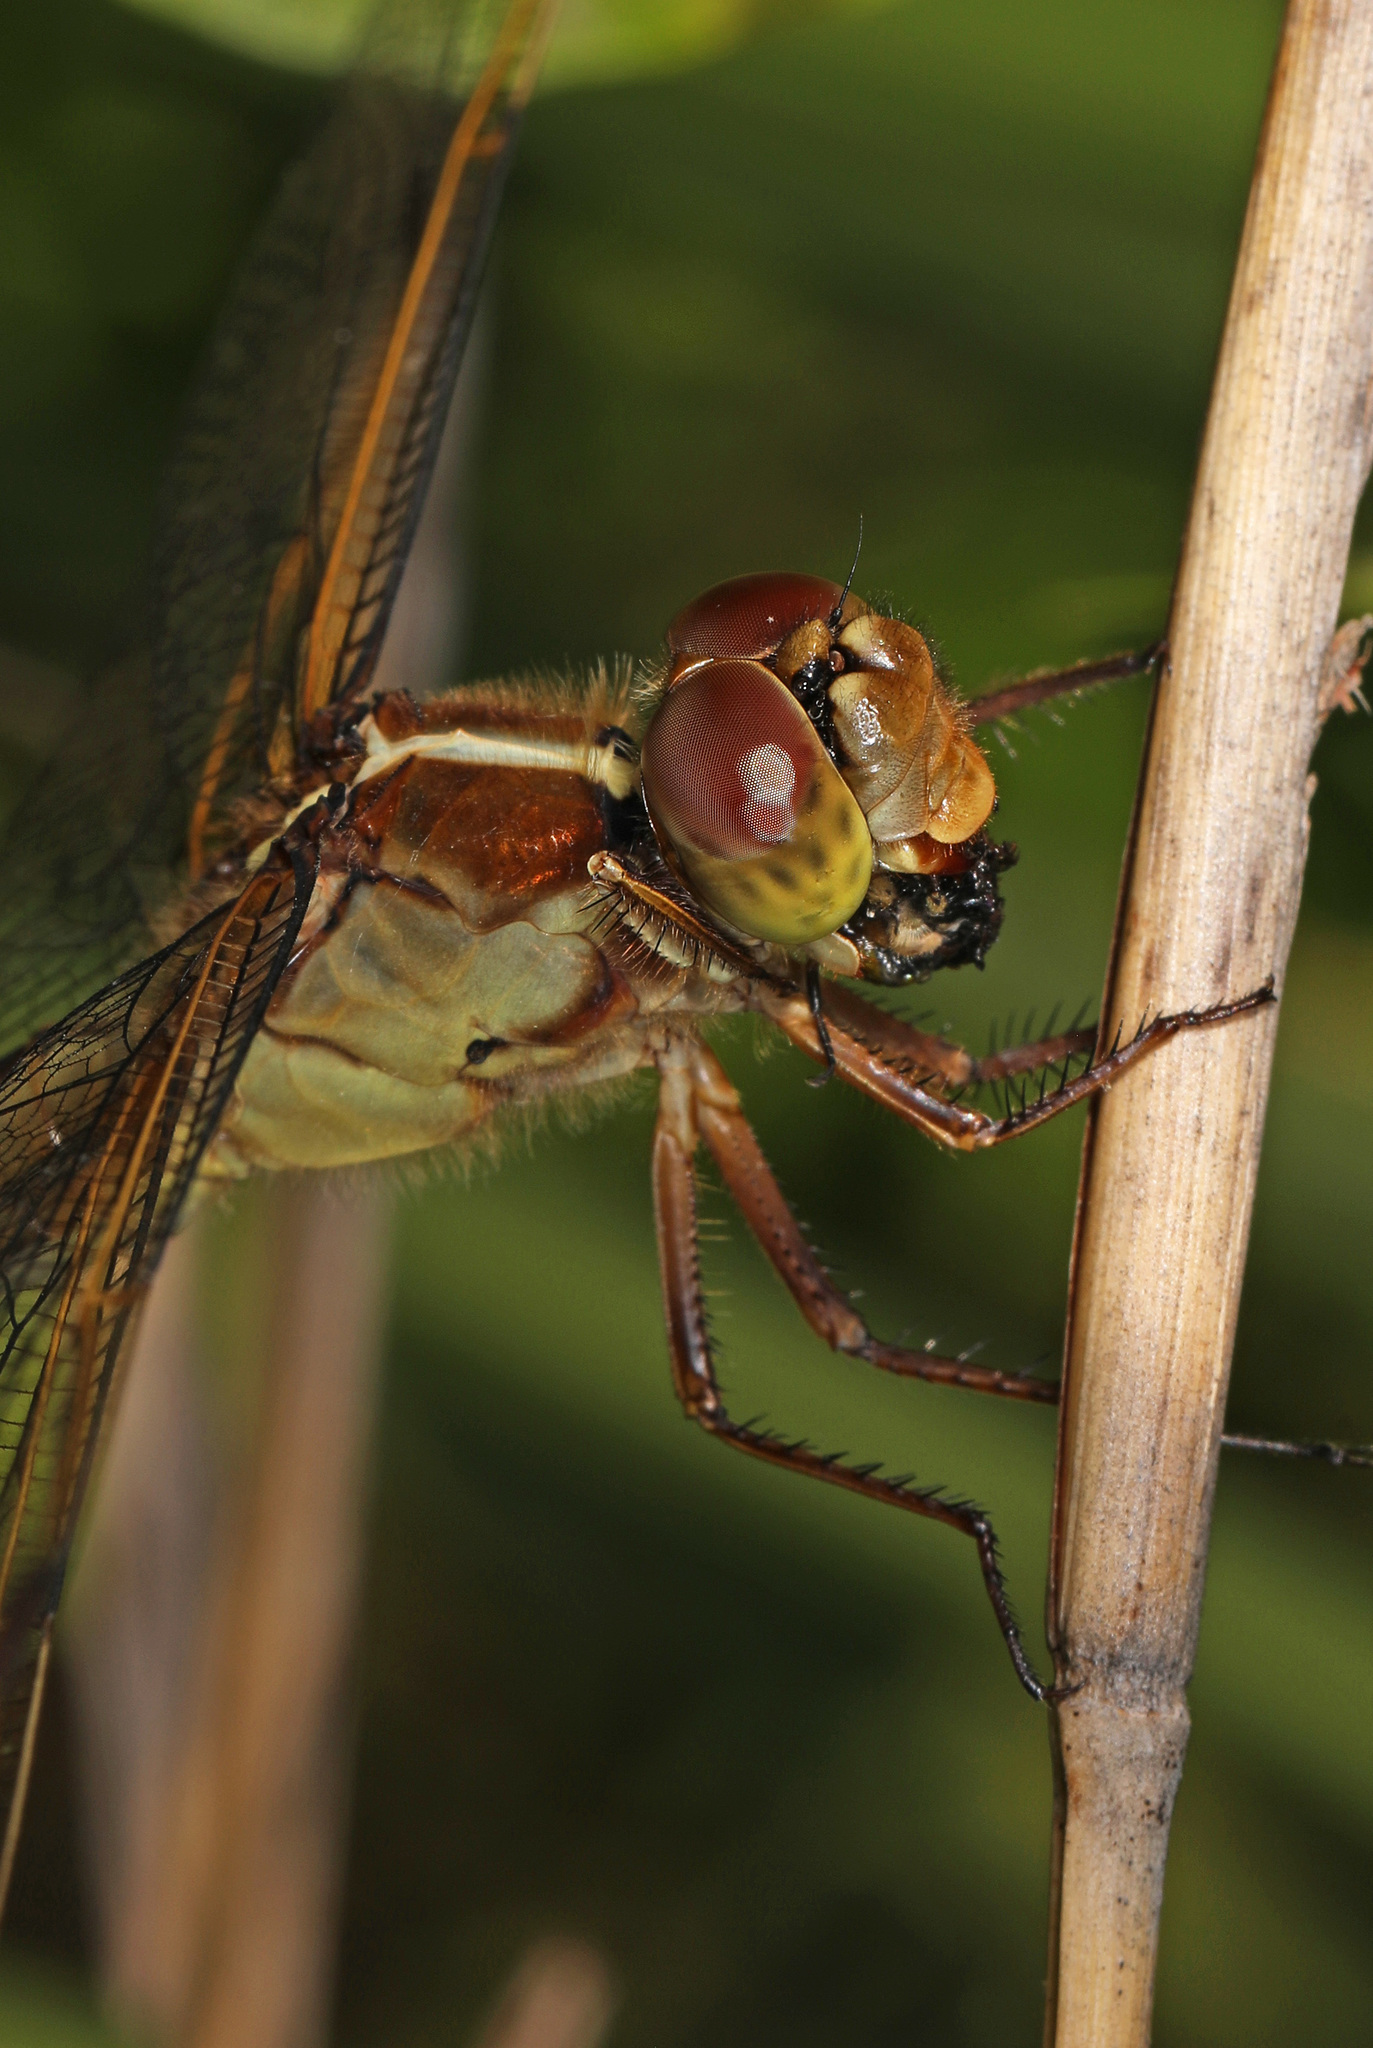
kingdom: Animalia
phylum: Arthropoda
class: Insecta
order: Odonata
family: Libellulidae
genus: Libellula
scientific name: Libellula needhami
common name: Needham's skimmer
